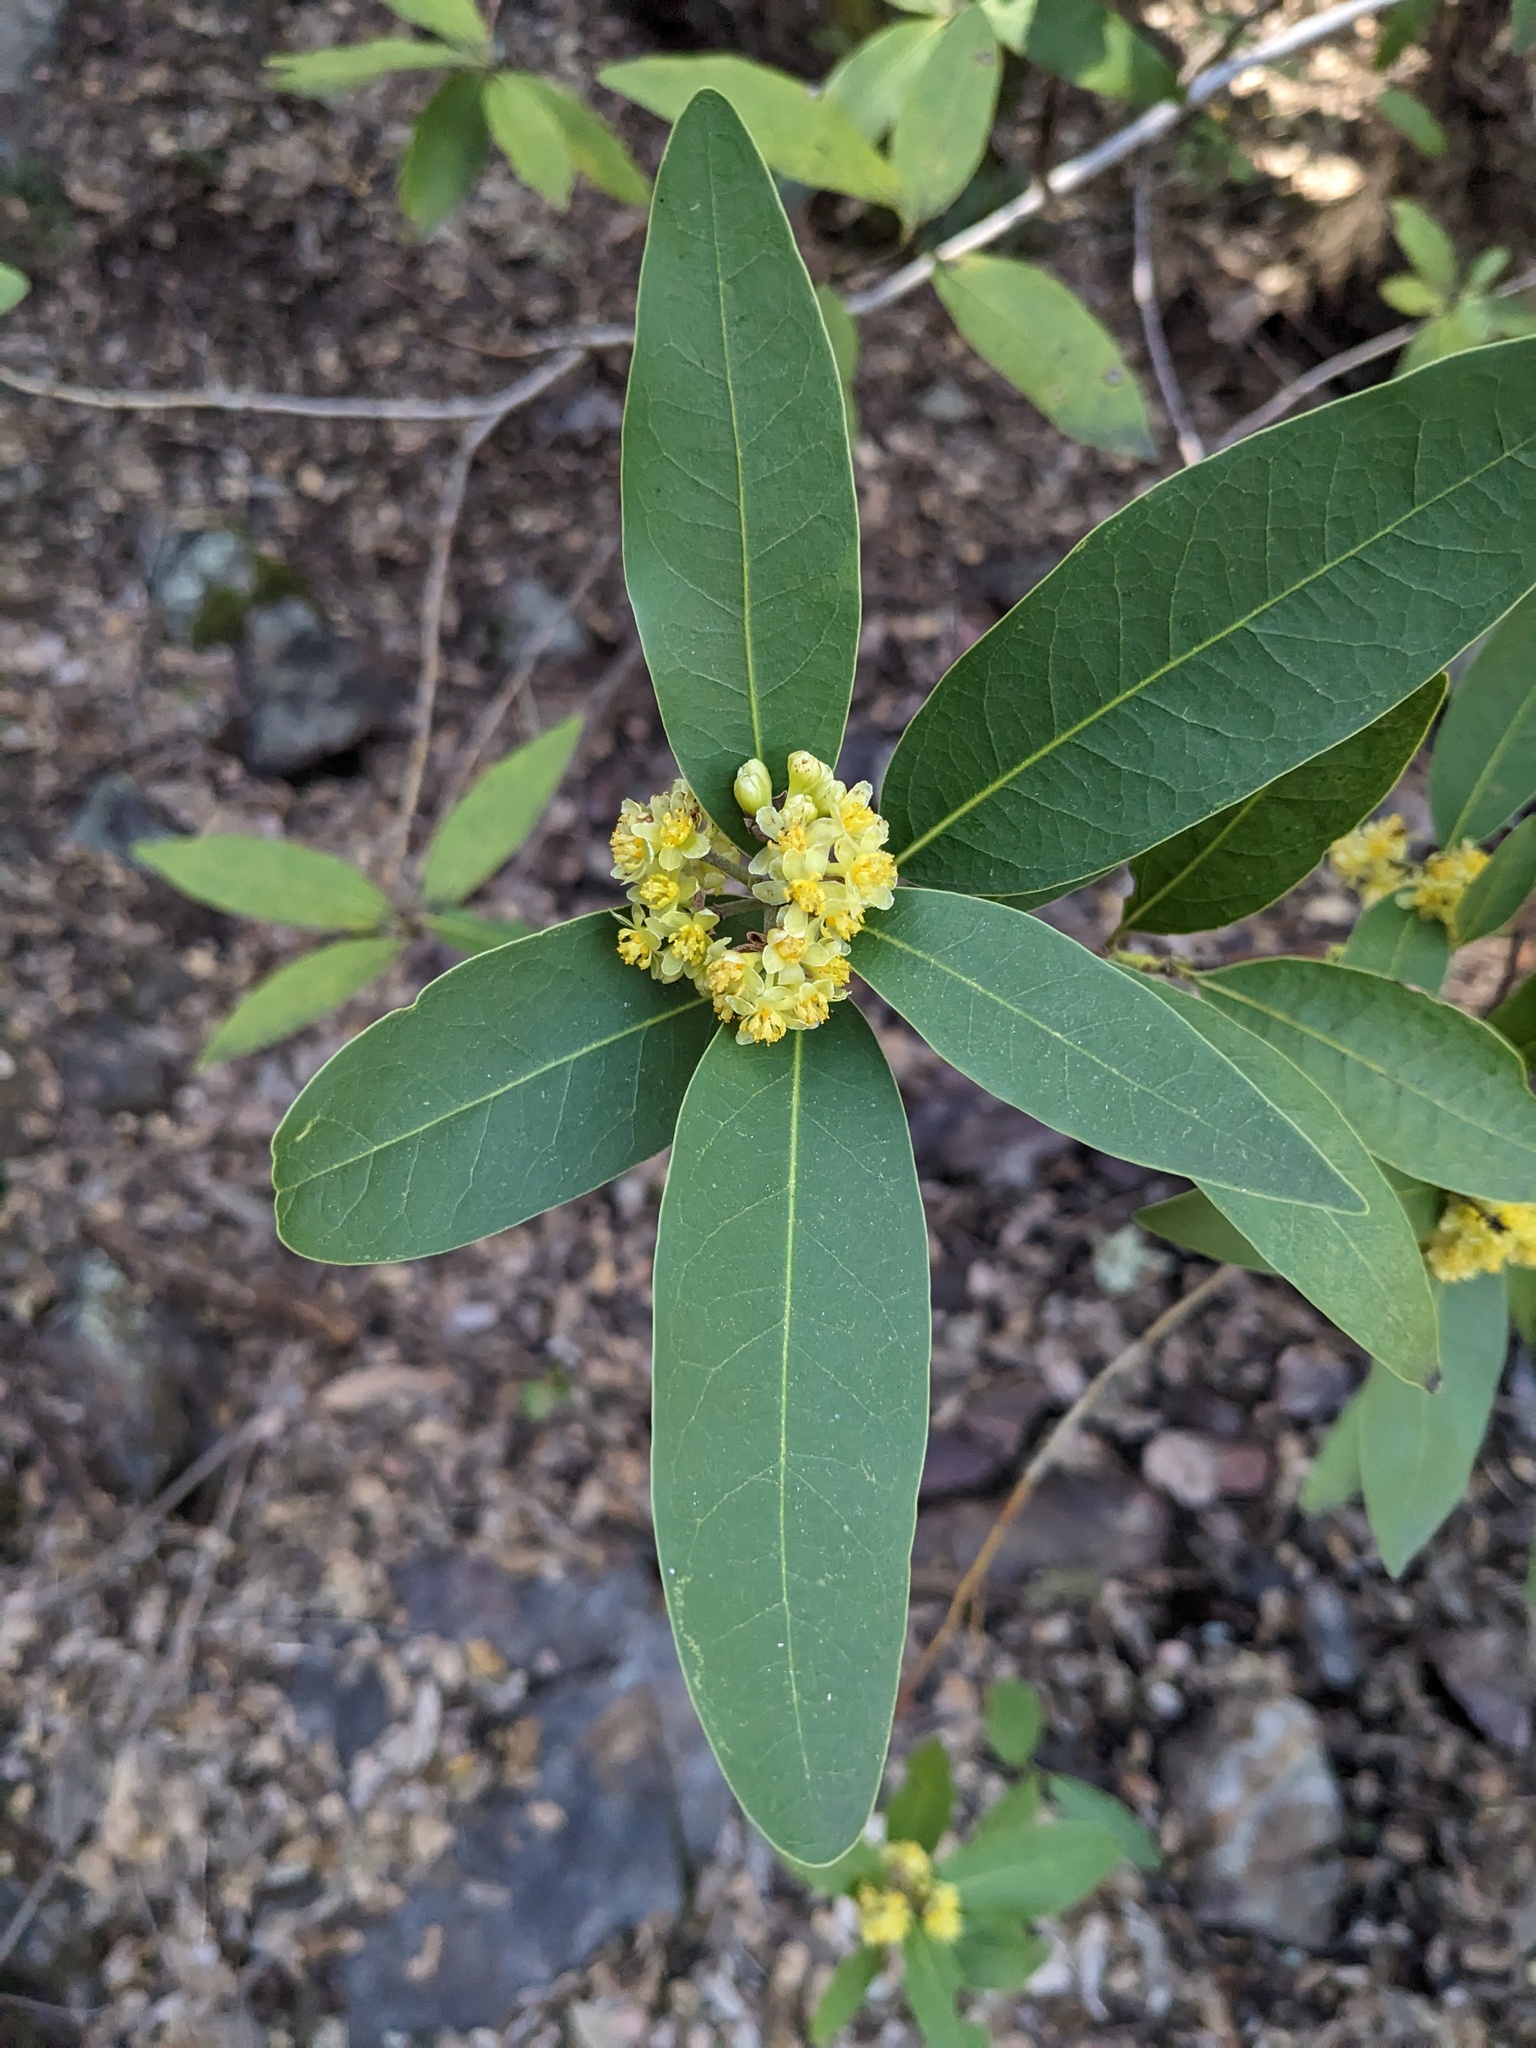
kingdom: Plantae
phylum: Tracheophyta
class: Magnoliopsida
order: Laurales
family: Lauraceae
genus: Umbellularia
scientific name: Umbellularia californica
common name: California bay
